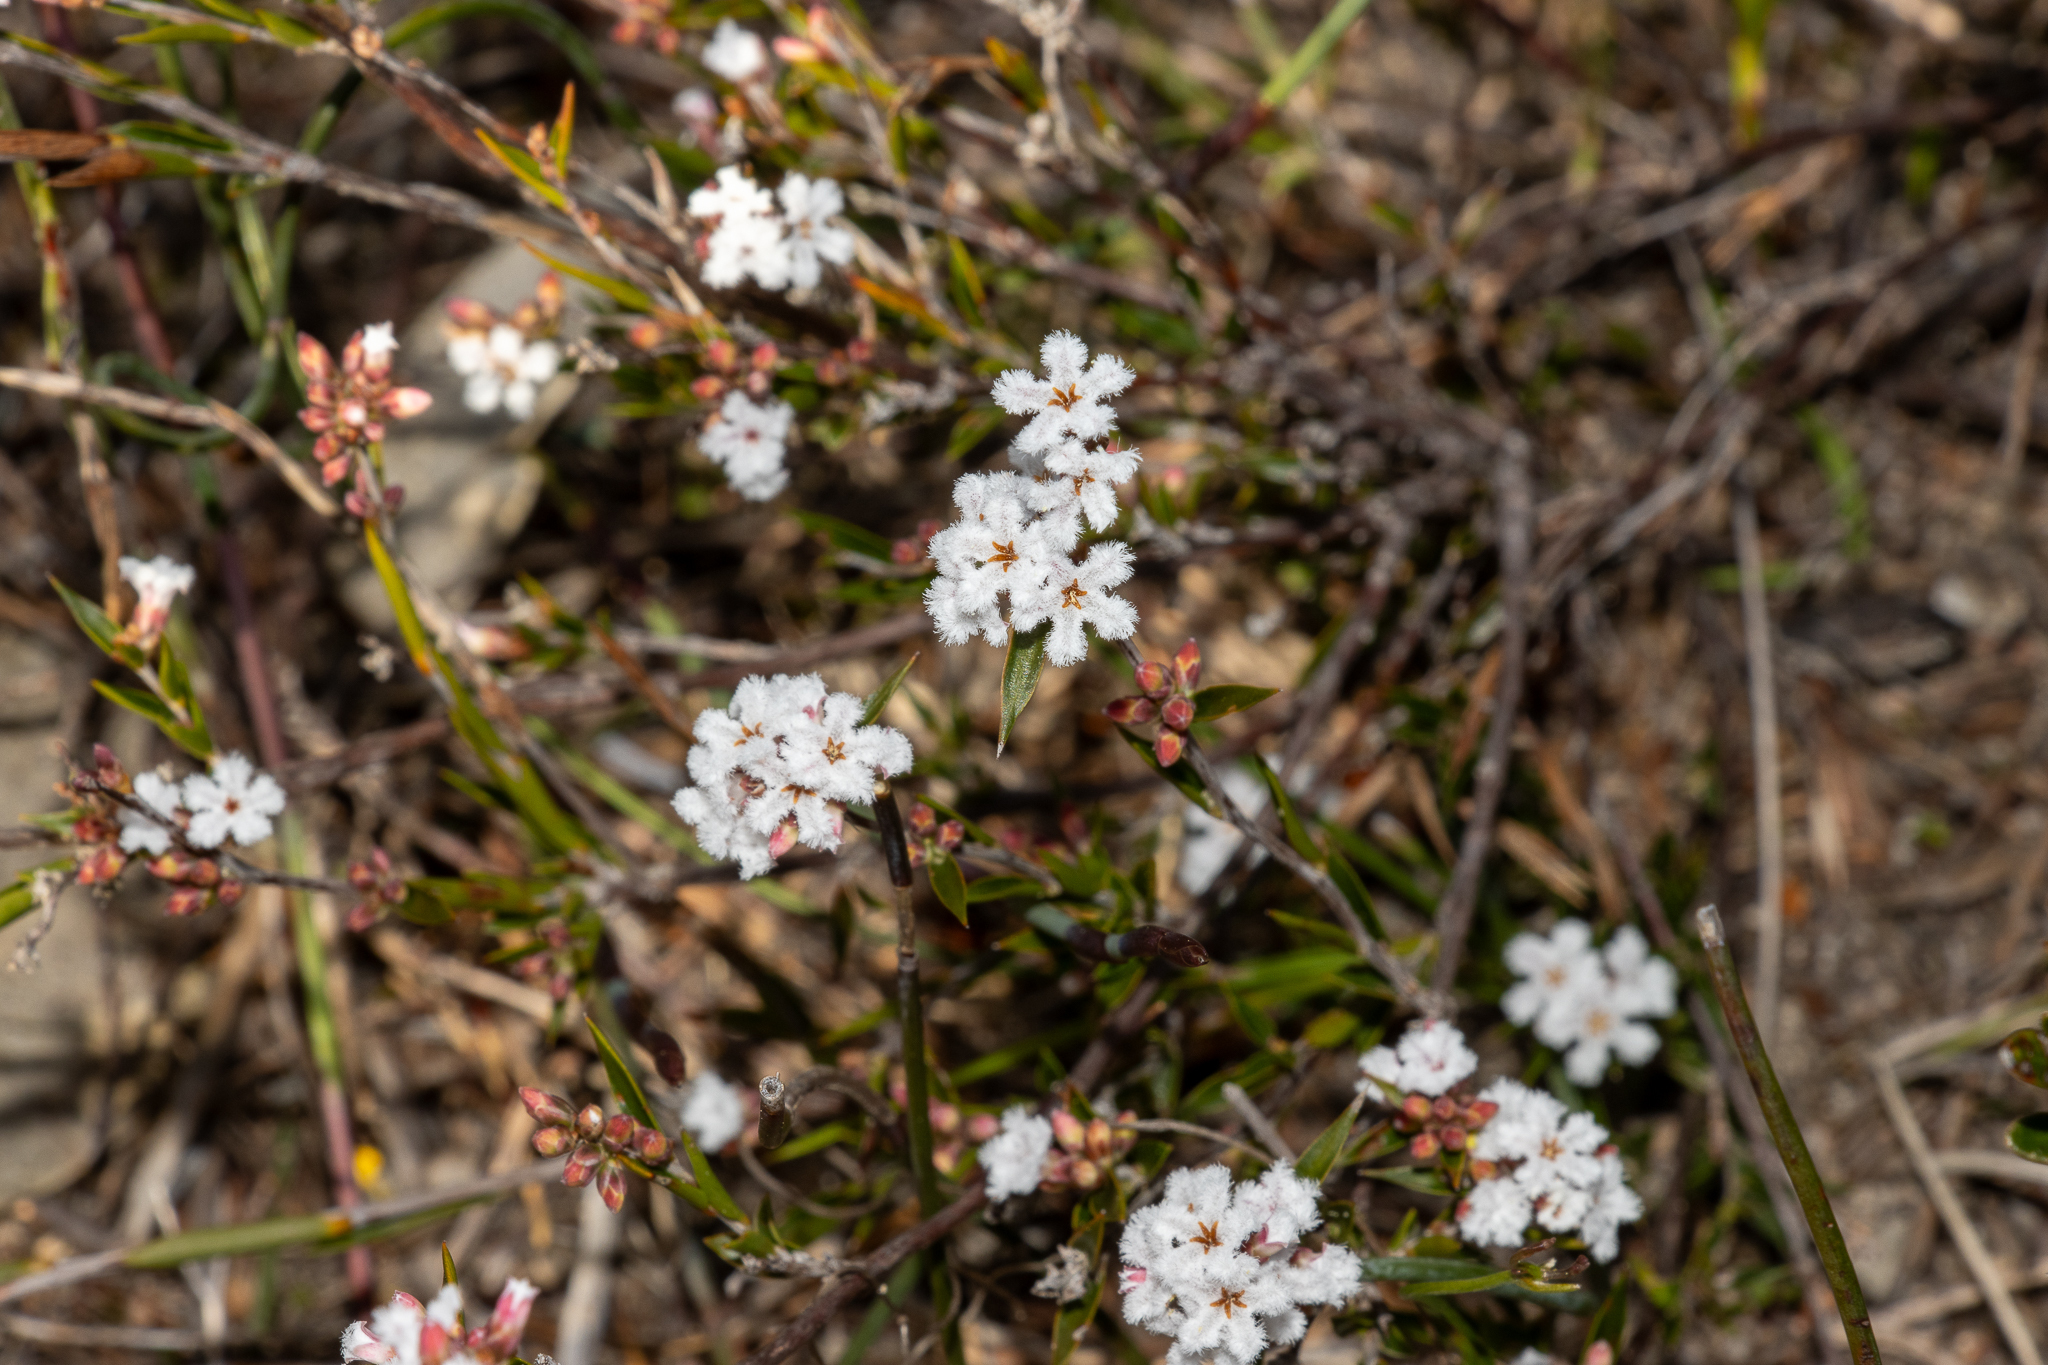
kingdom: Plantae
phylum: Tracheophyta
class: Magnoliopsida
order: Ericales
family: Ericaceae
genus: Leucopogon
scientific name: Leucopogon virgatus
